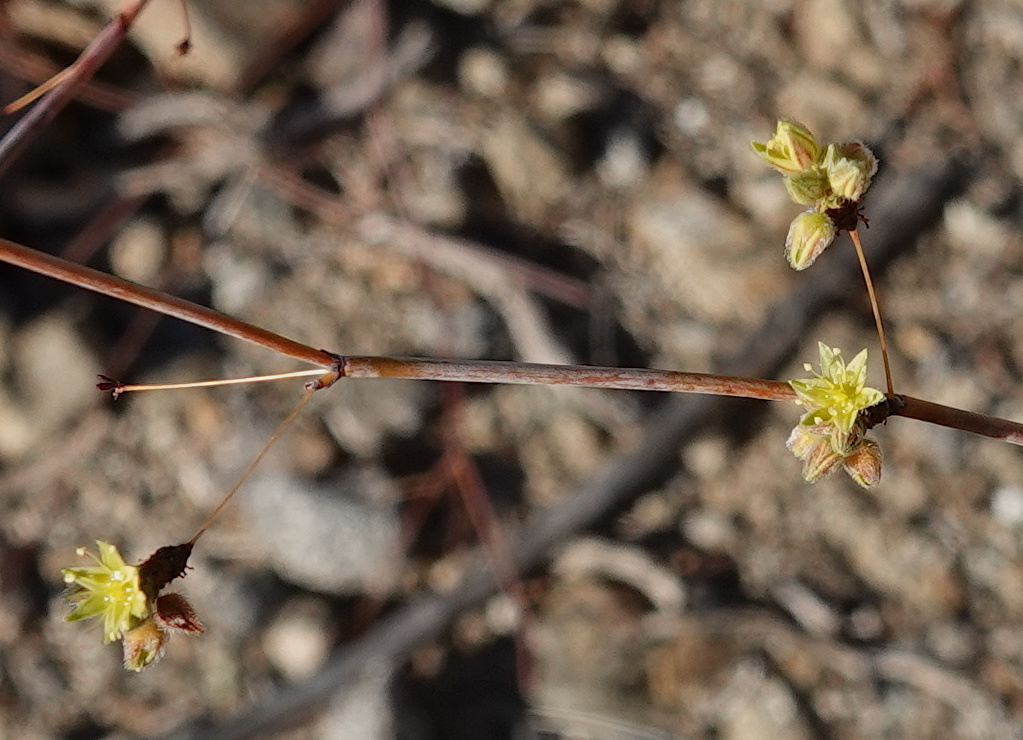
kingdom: Plantae
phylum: Tracheophyta
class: Magnoliopsida
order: Caryophyllales
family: Polygonaceae
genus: Eriogonum
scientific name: Eriogonum inflatum
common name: Desert trumpet
